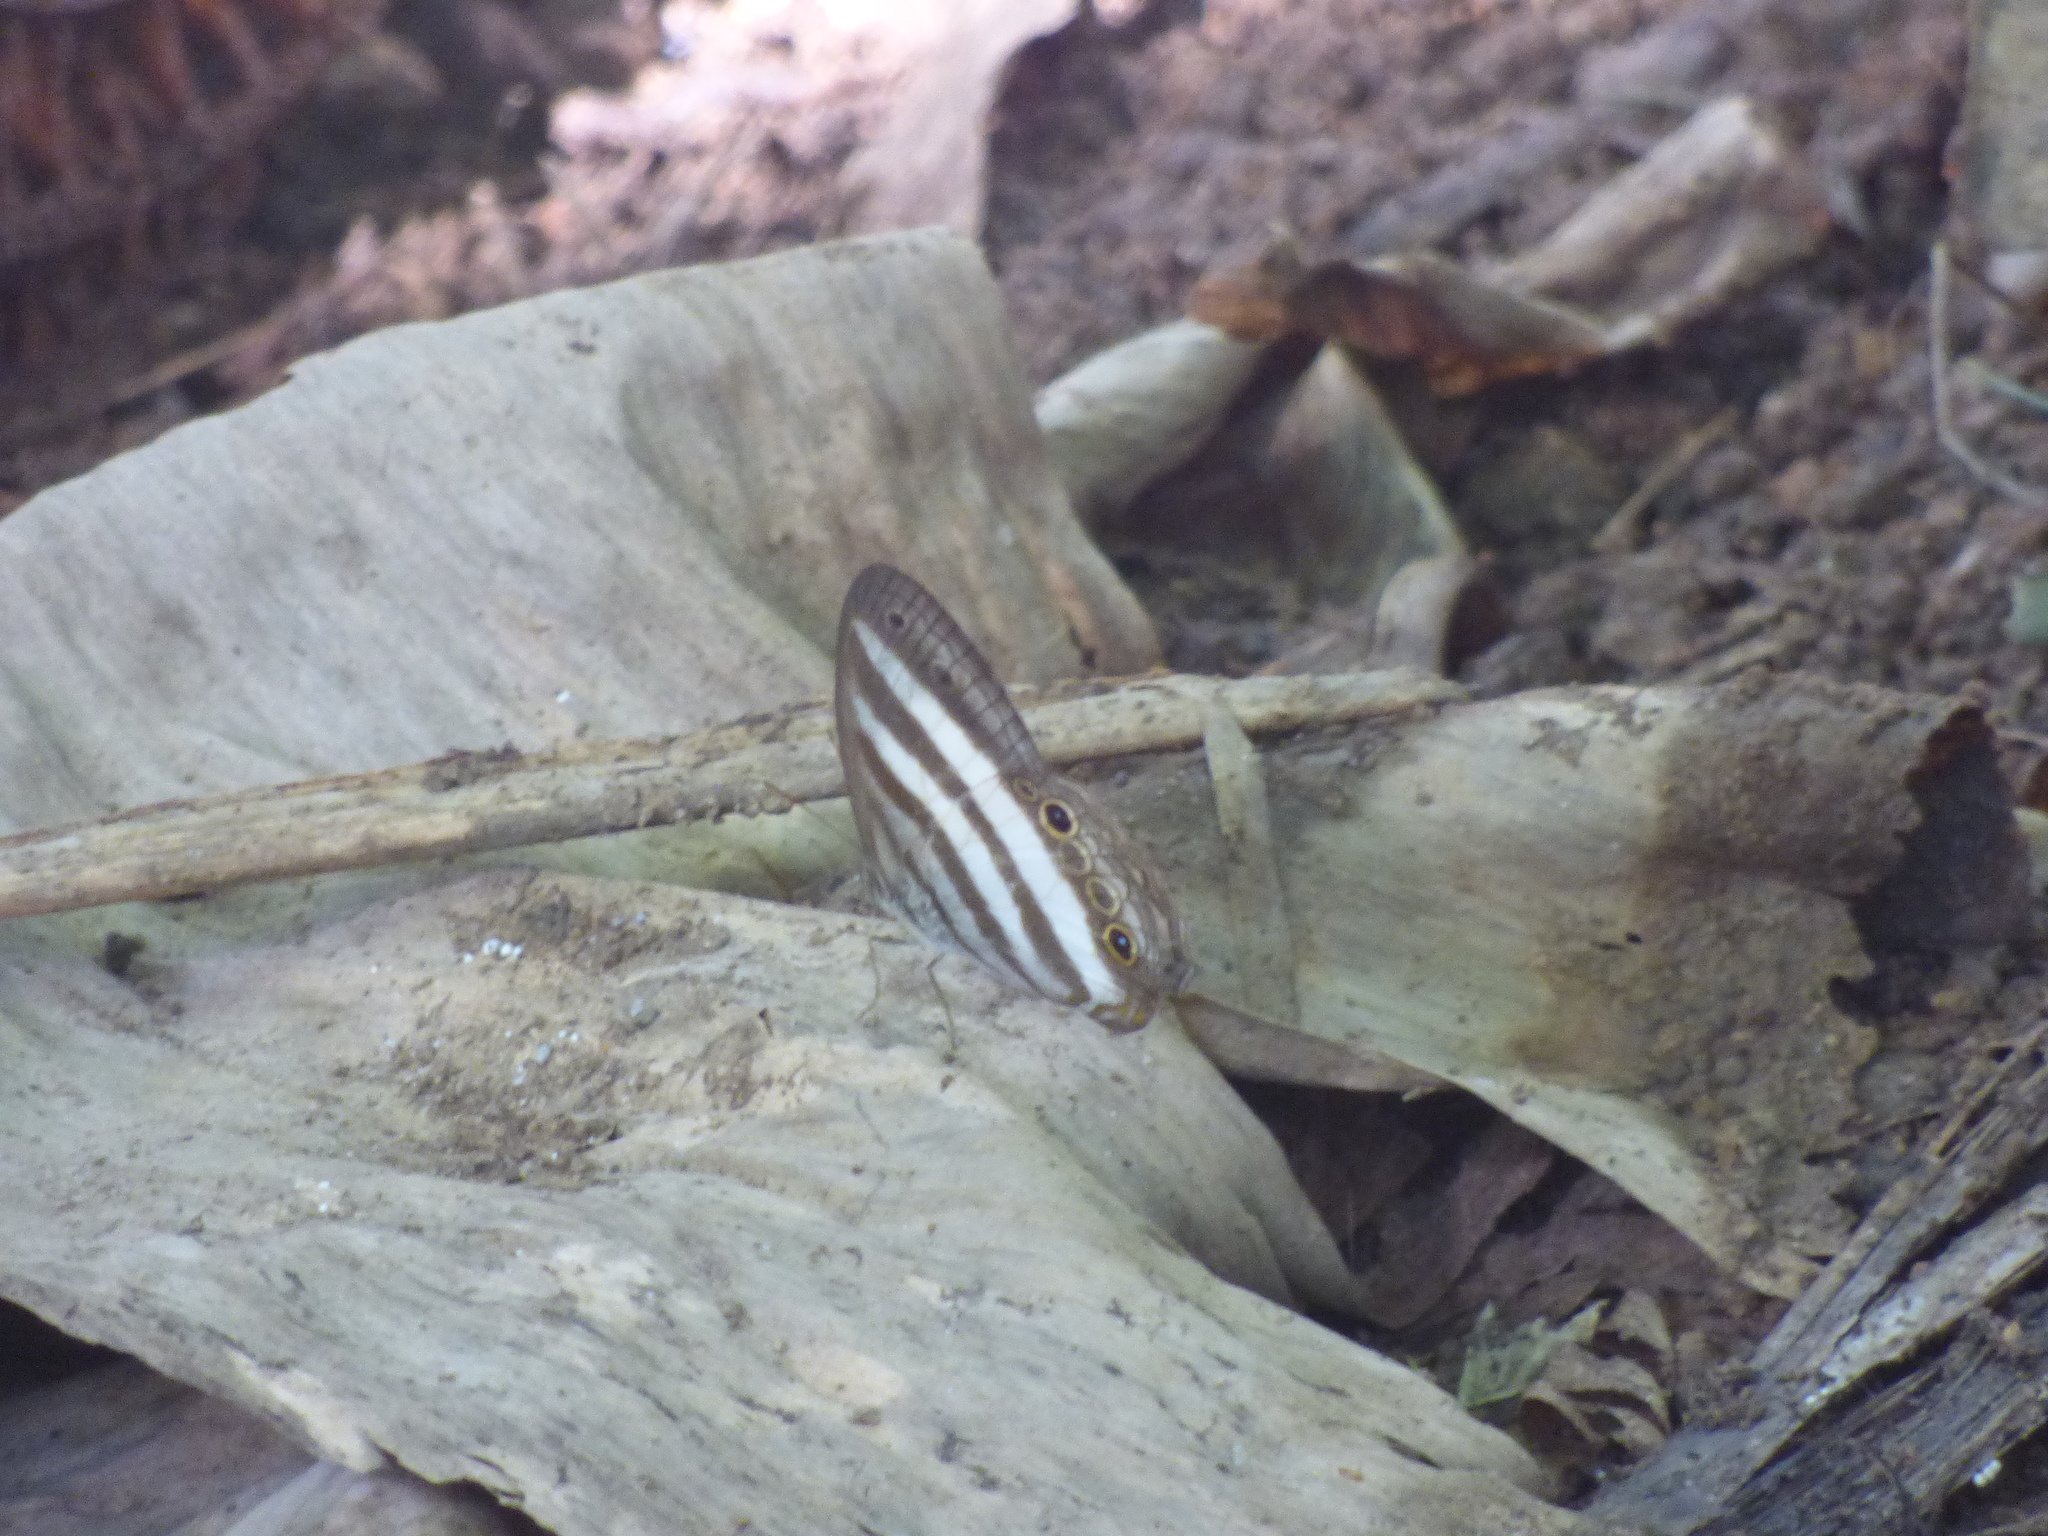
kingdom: Animalia
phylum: Arthropoda
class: Insecta
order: Lepidoptera
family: Nymphalidae
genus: Pareuptychia
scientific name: Pareuptychia hesione
